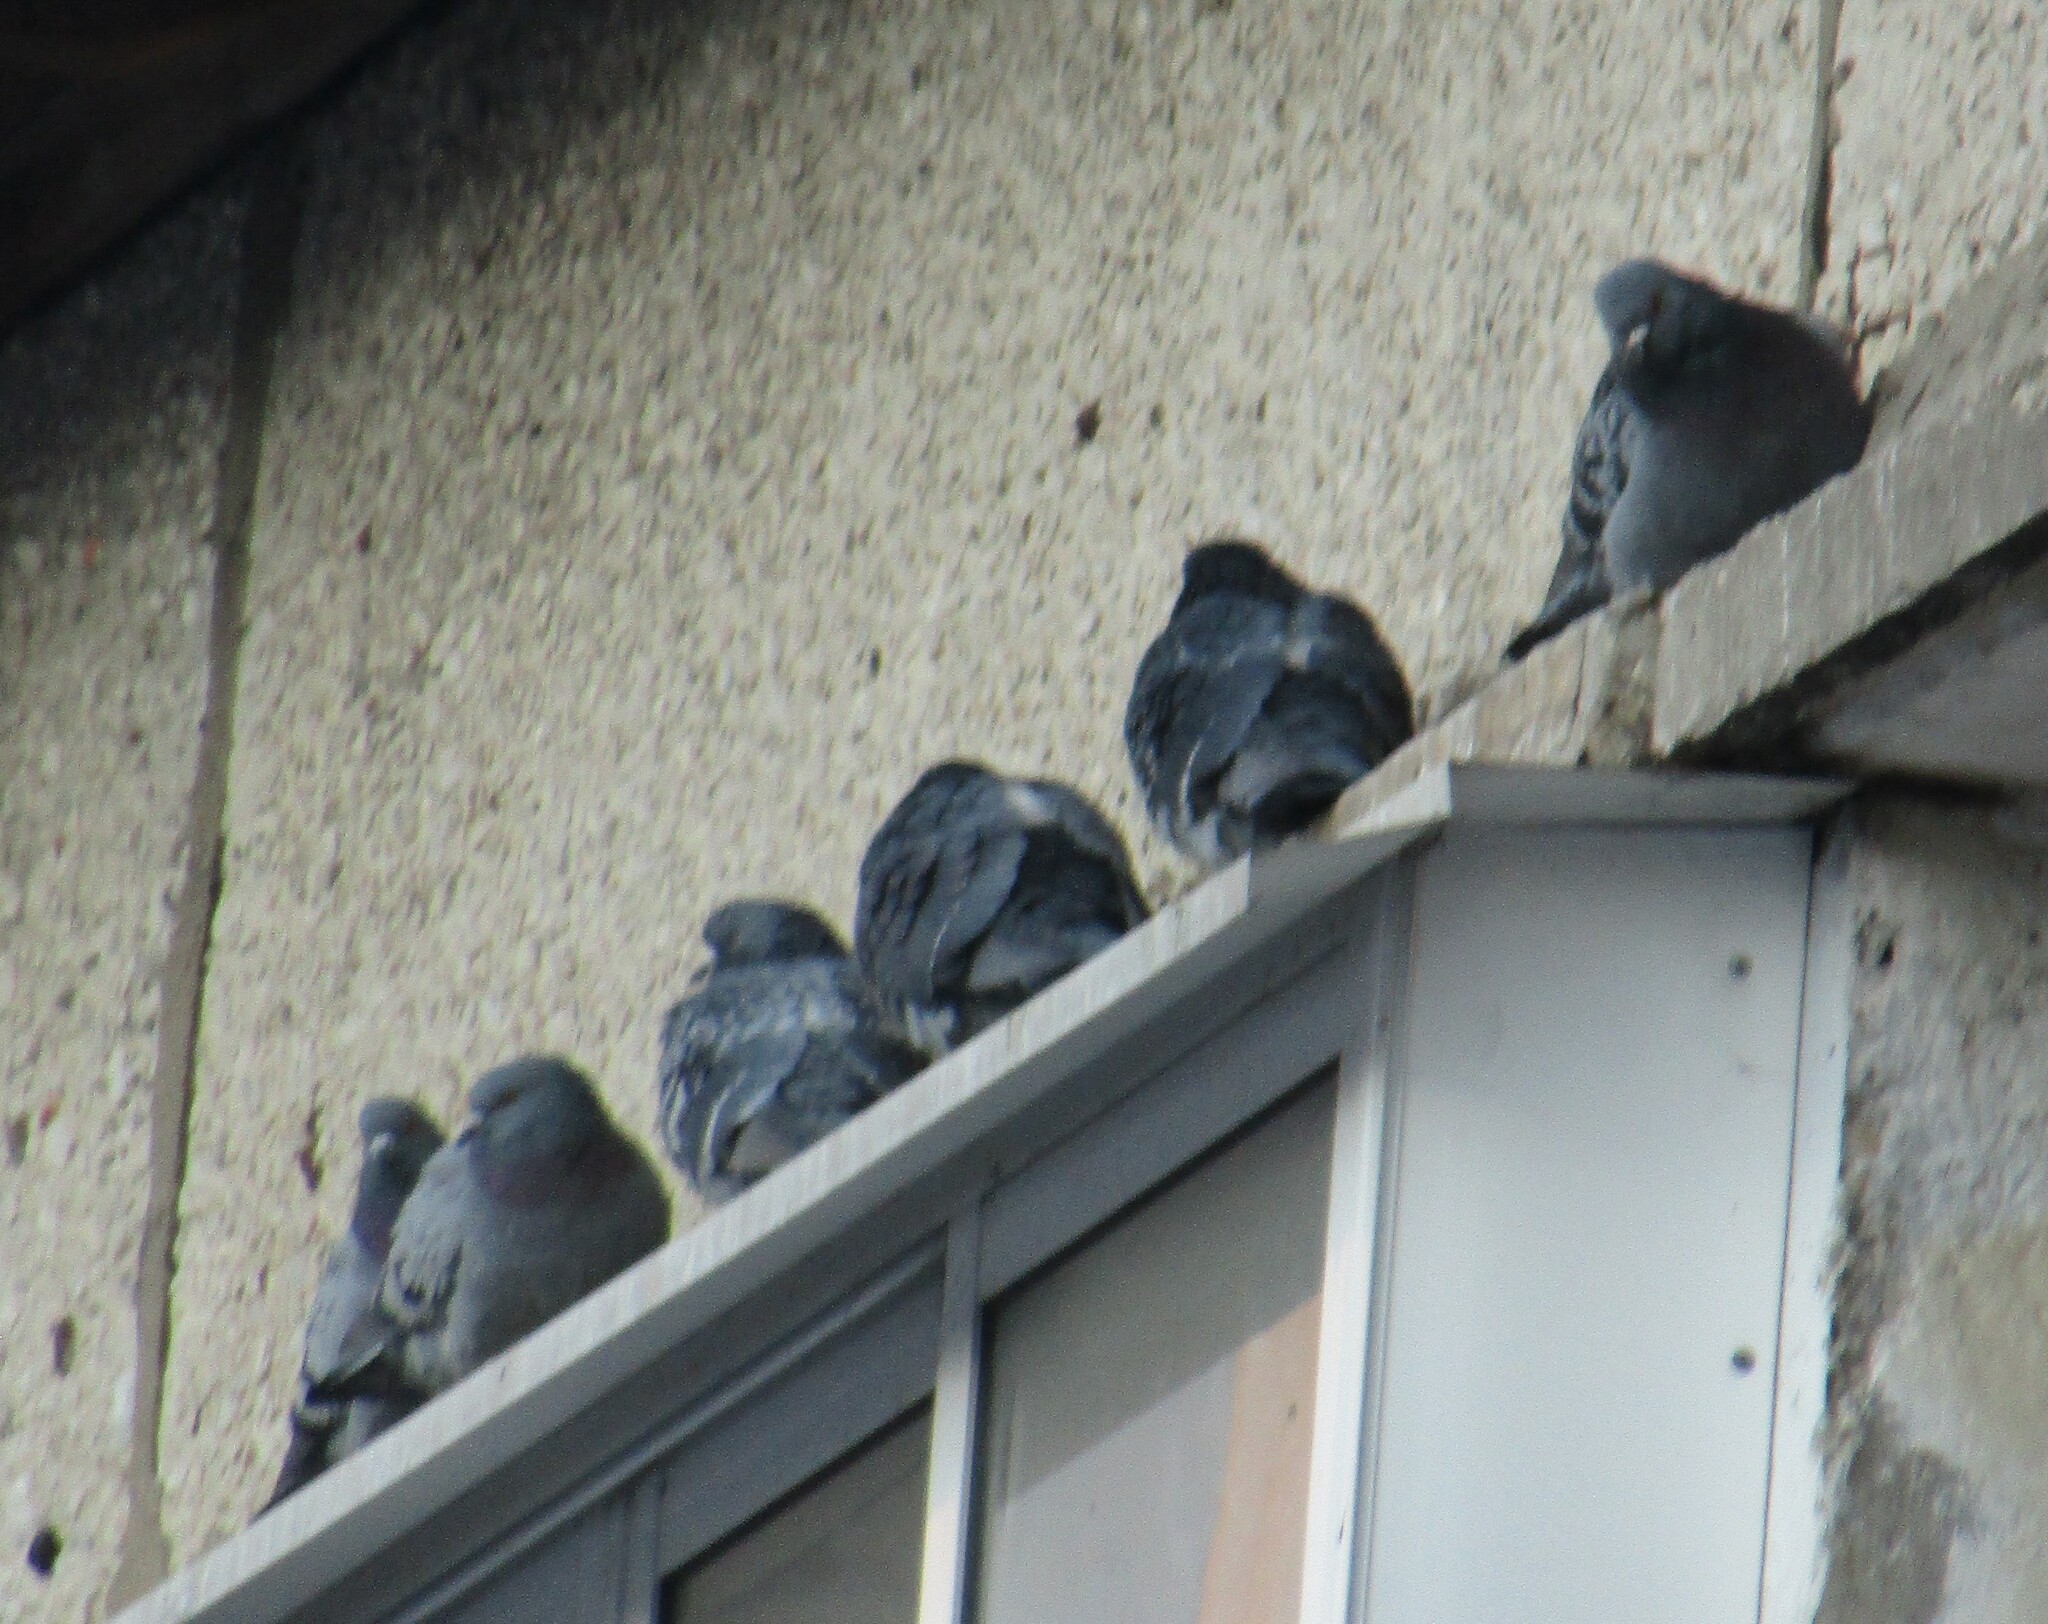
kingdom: Animalia
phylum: Chordata
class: Aves
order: Columbiformes
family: Columbidae
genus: Columba
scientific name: Columba livia
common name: Rock pigeon
